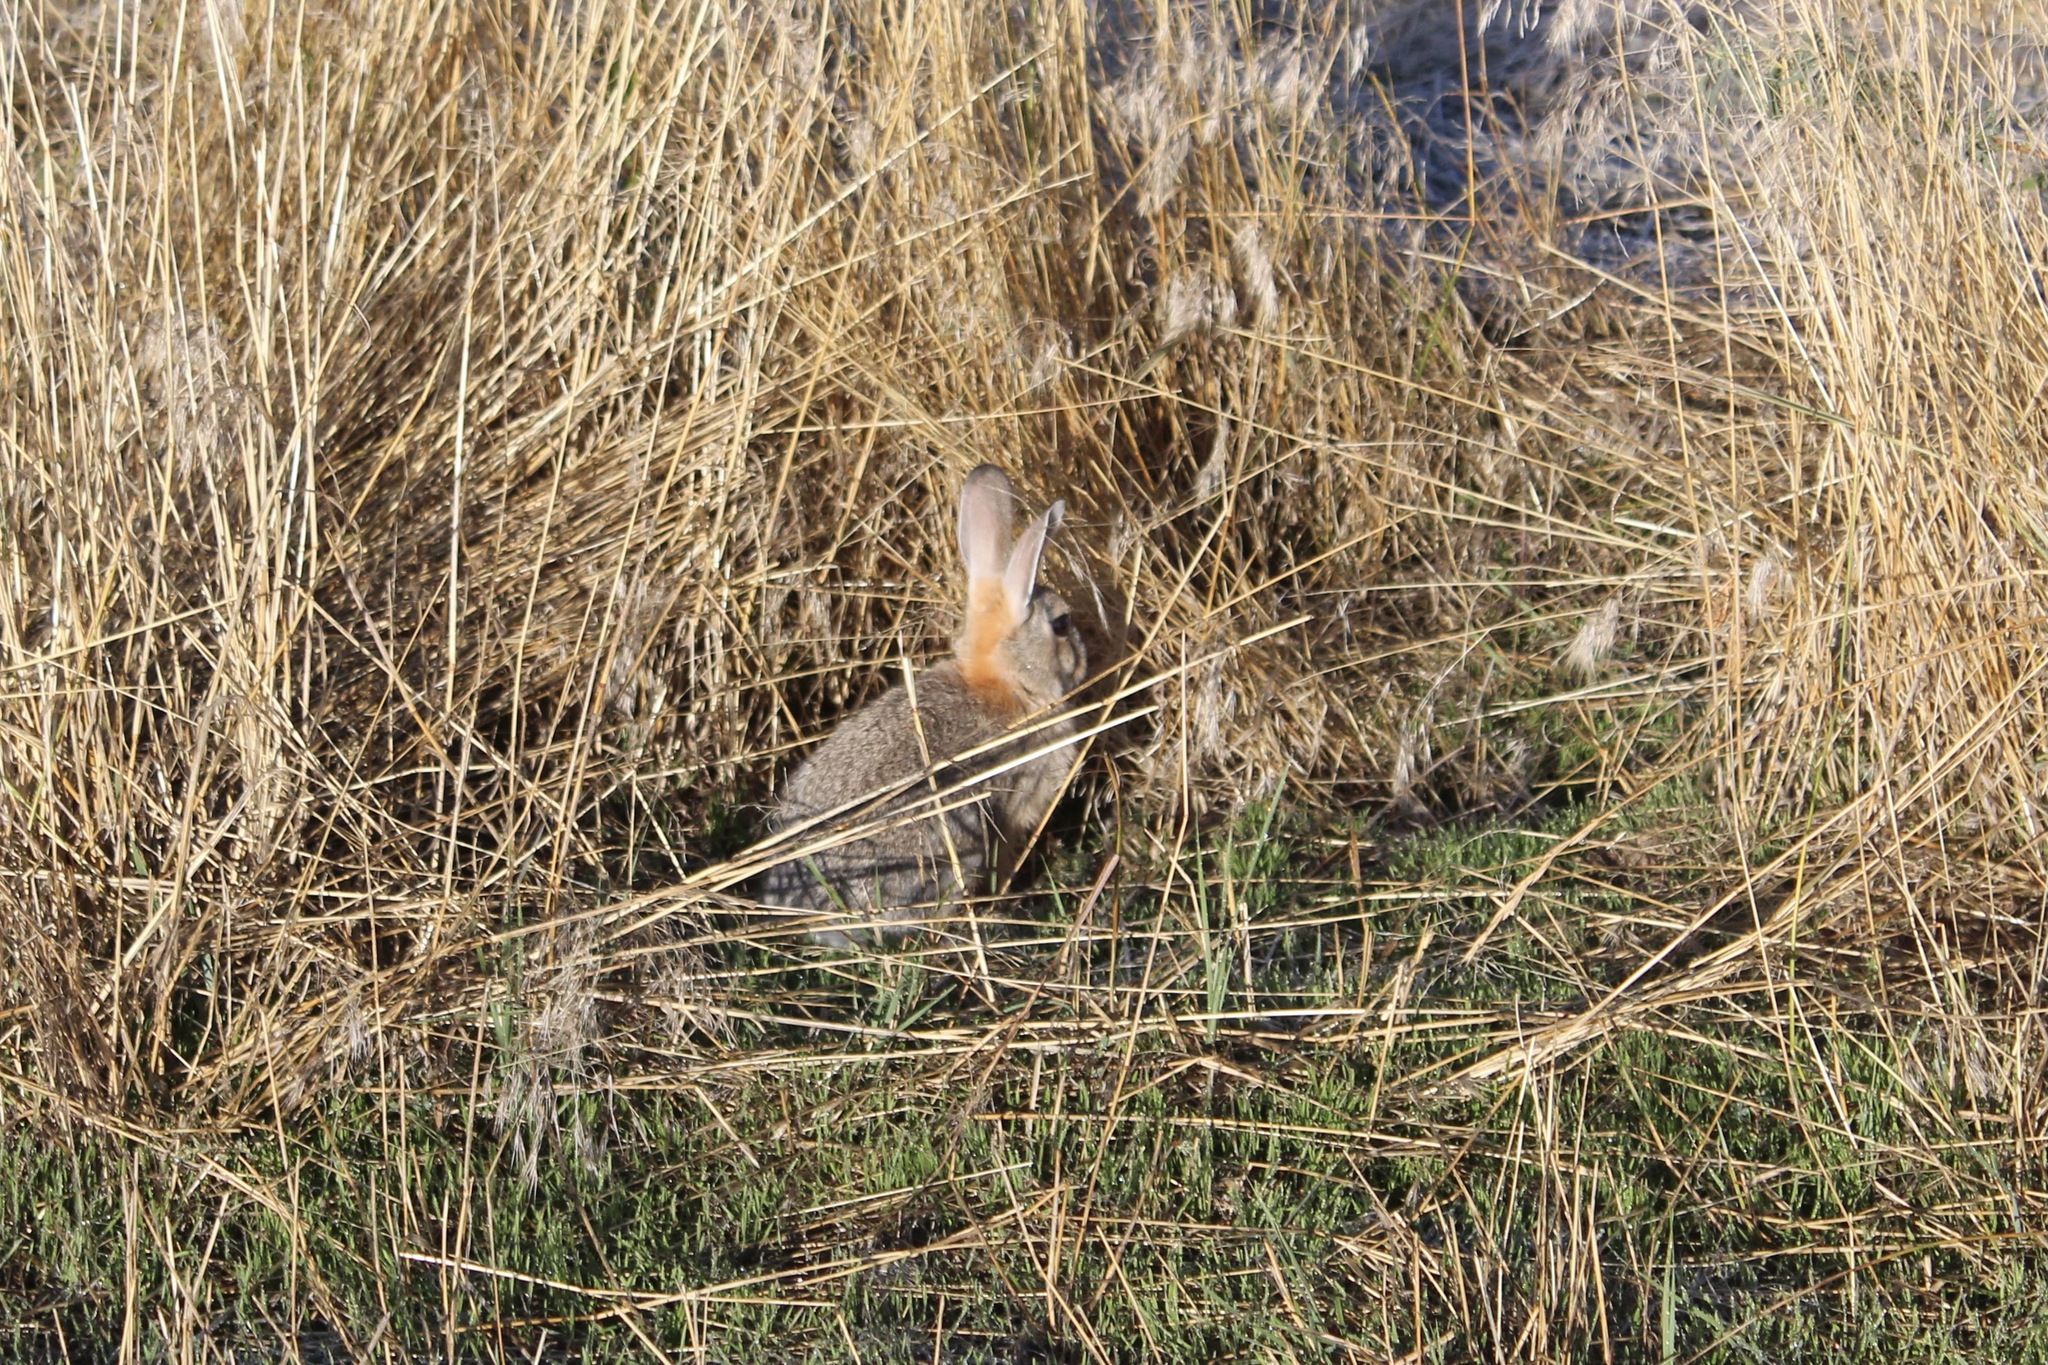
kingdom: Animalia
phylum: Chordata
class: Mammalia
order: Lagomorpha
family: Leporidae
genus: Sylvilagus
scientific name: Sylvilagus audubonii
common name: Desert cottontail
